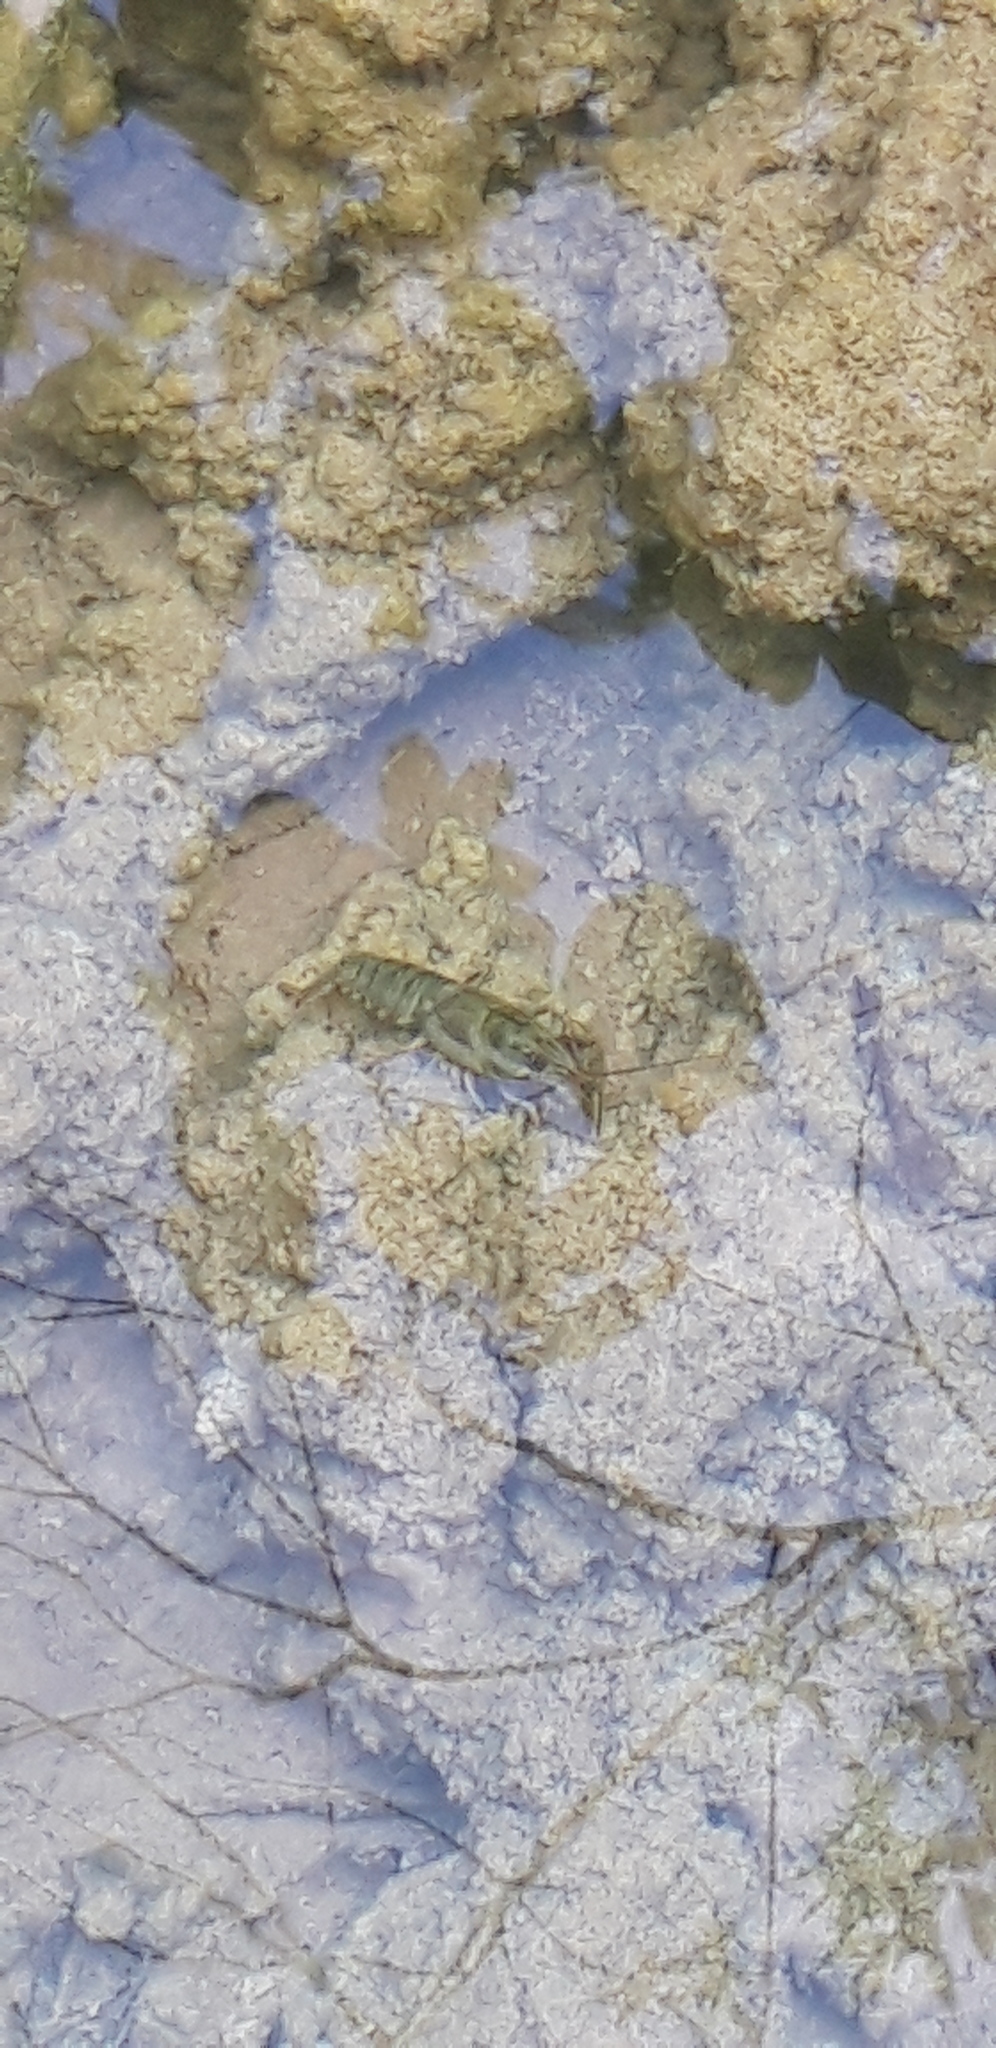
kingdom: Animalia
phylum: Arthropoda
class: Malacostraca
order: Decapoda
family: Astacidae
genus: Astacus
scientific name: Astacus astacus
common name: Noble crayfish
